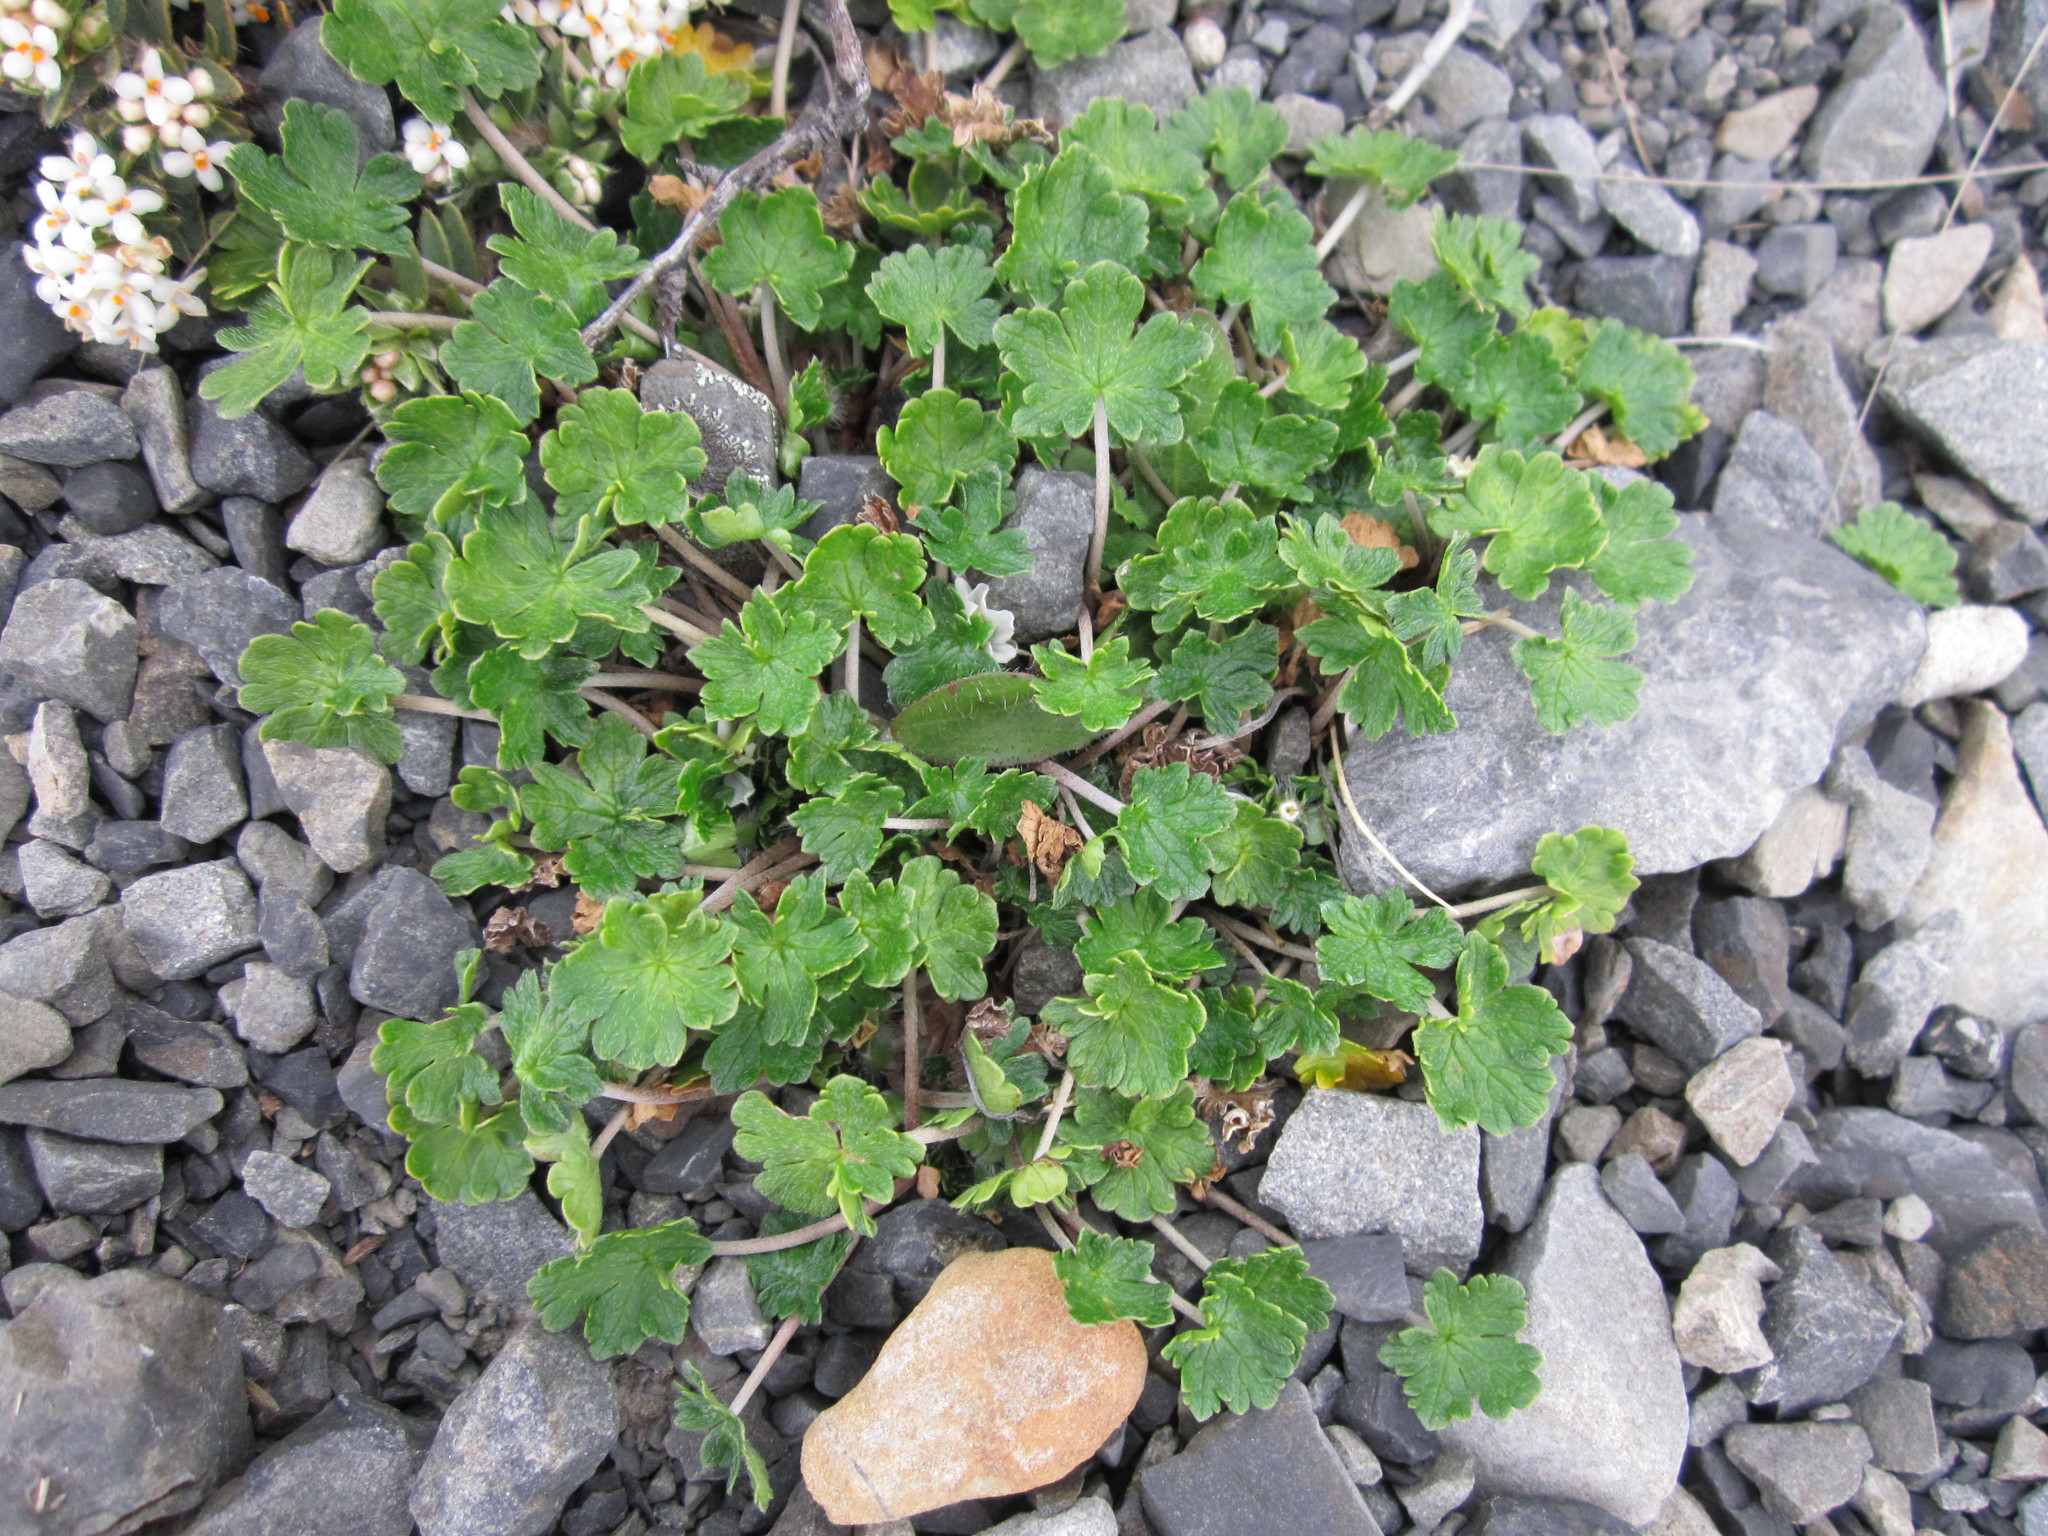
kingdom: Plantae
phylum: Tracheophyta
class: Magnoliopsida
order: Geraniales
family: Geraniaceae
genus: Geranium
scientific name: Geranium brevicaule
